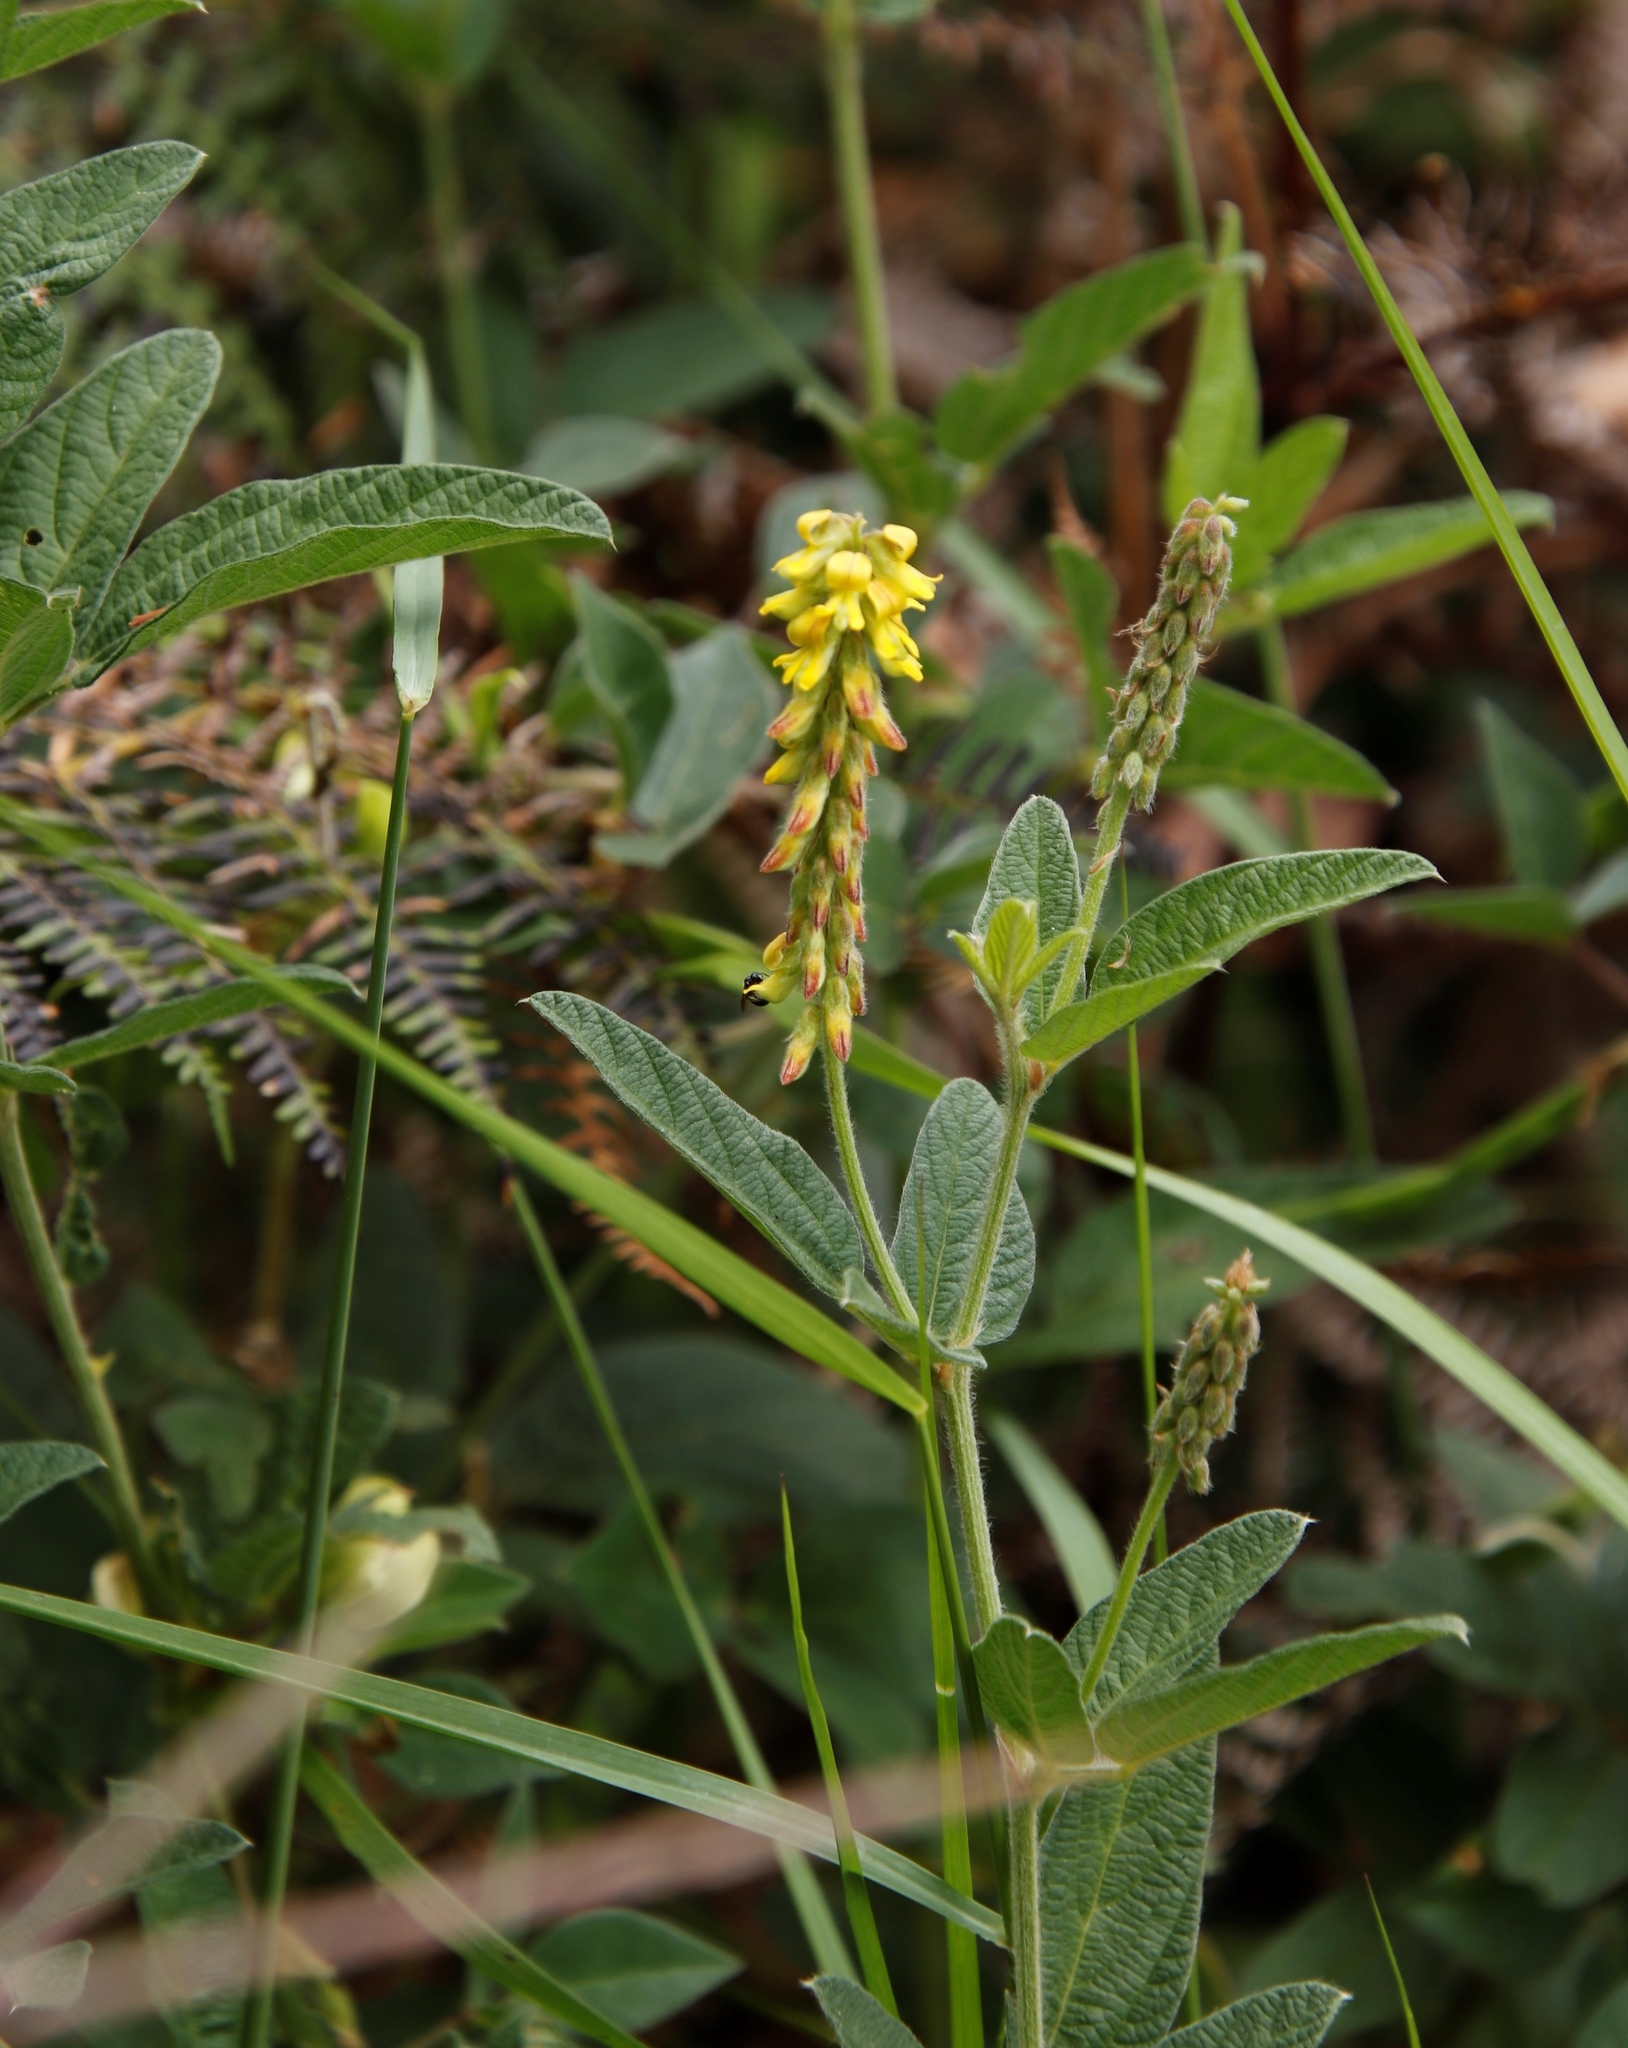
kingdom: Plantae
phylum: Tracheophyta
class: Magnoliopsida
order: Fabales
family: Fabaceae
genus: Eriosema
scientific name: Eriosema psoraleoides
